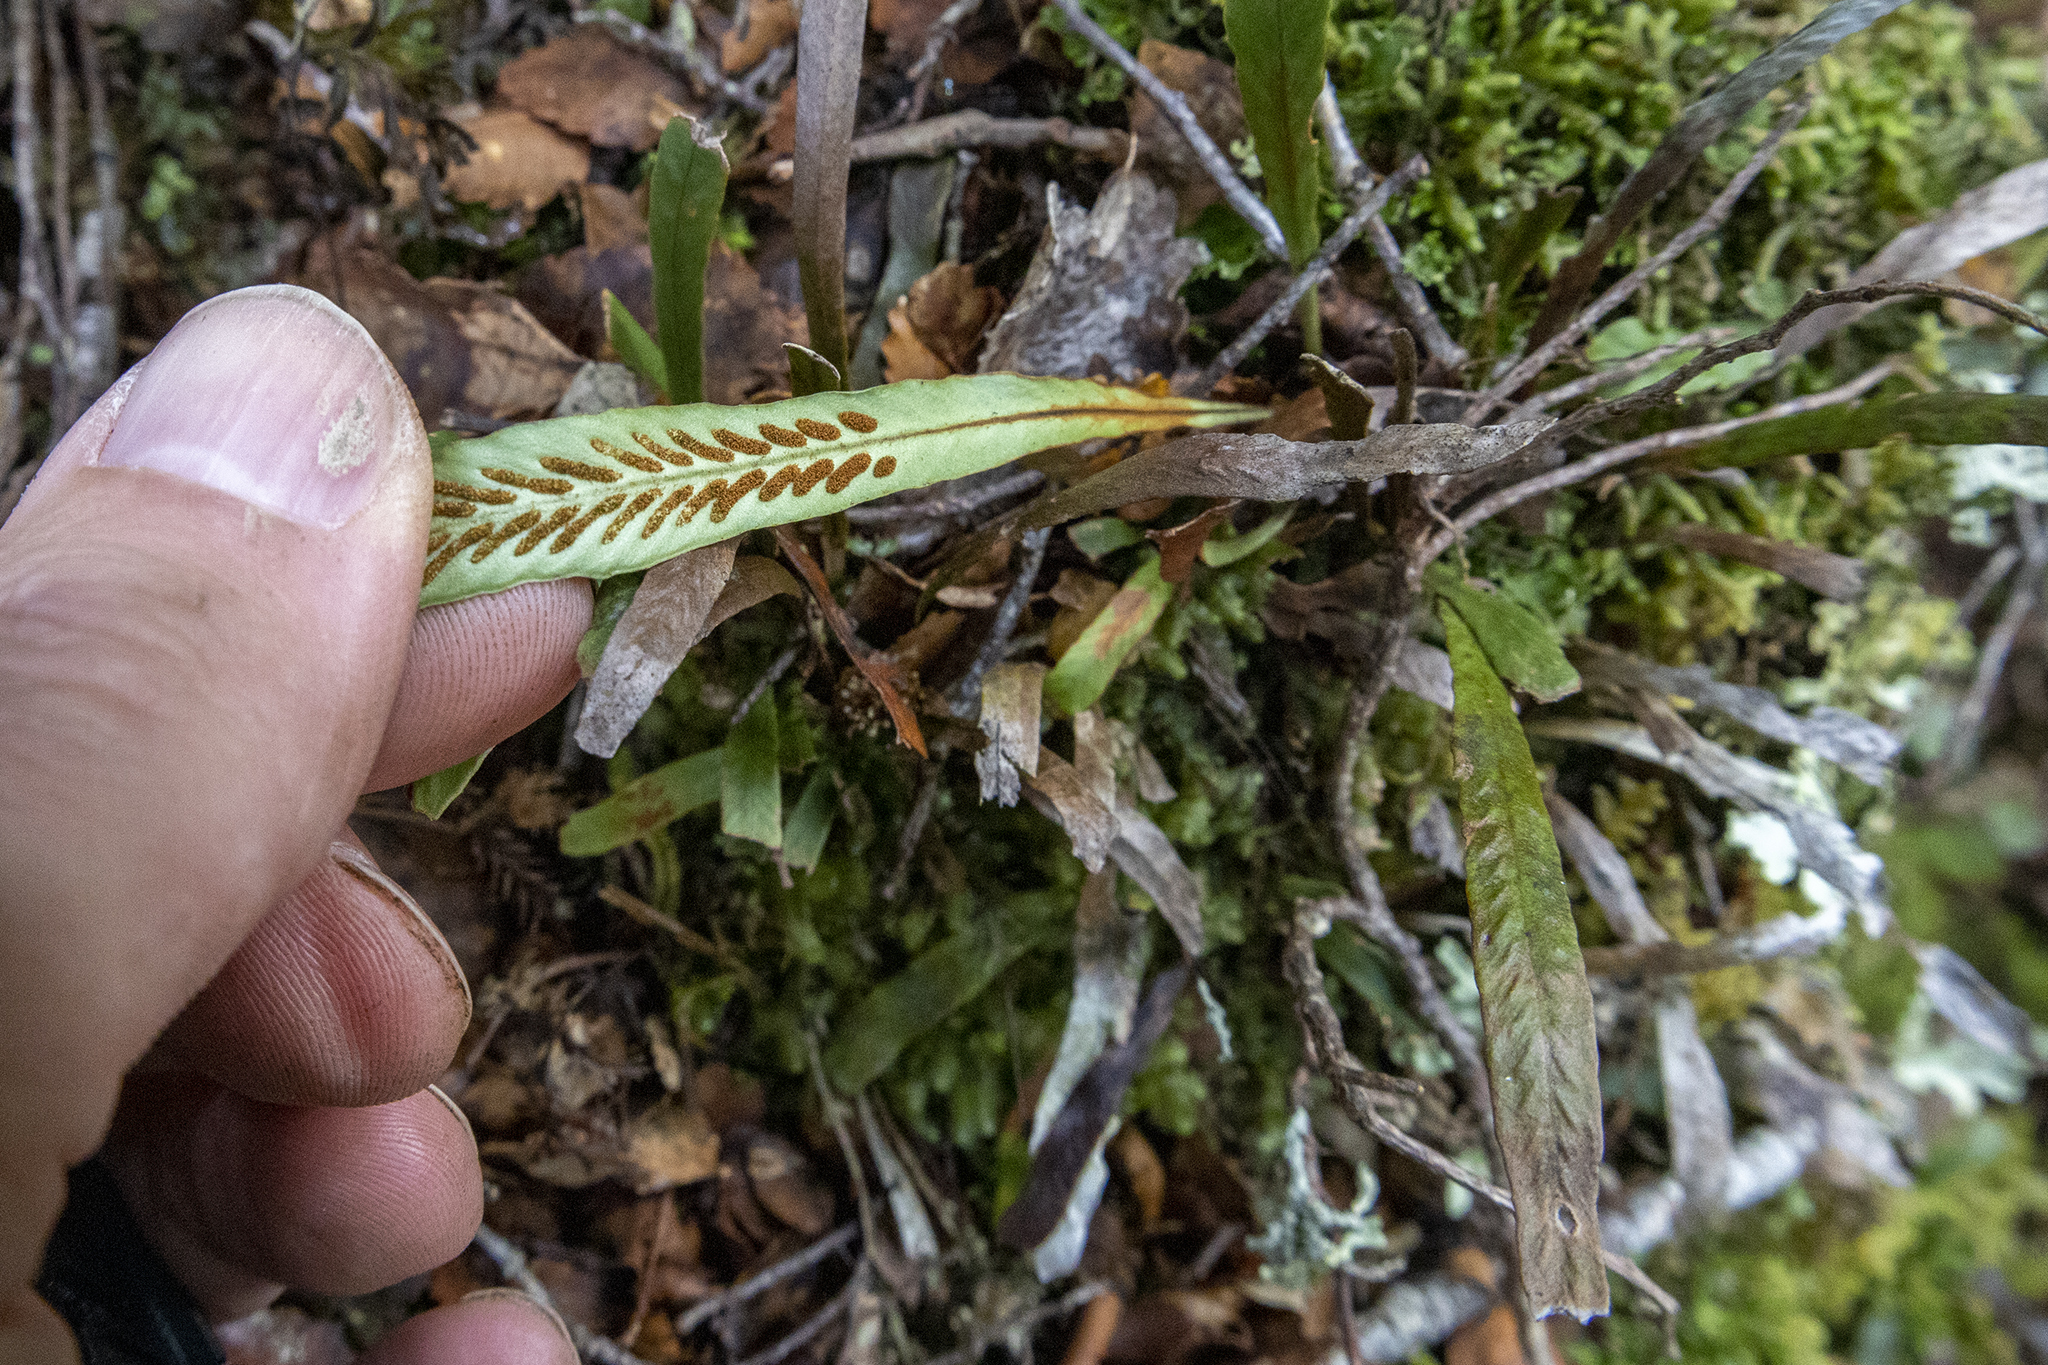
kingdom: Plantae
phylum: Tracheophyta
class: Polypodiopsida
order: Polypodiales
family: Polypodiaceae
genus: Notogrammitis
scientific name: Notogrammitis billardierei
